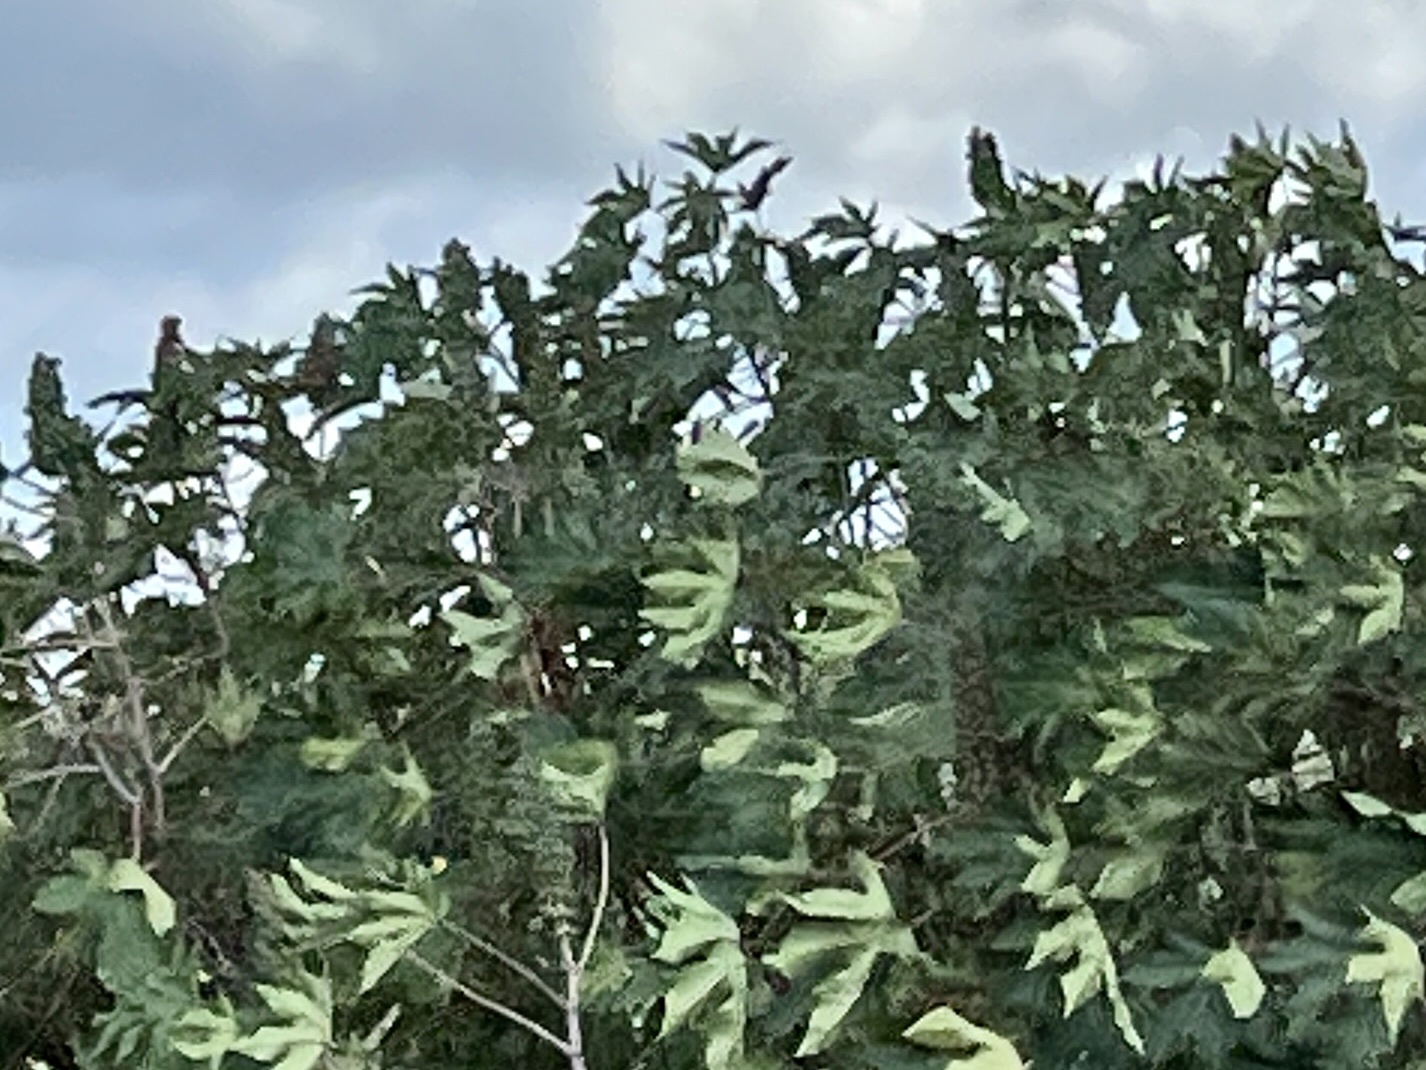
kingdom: Plantae
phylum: Tracheophyta
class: Magnoliopsida
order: Malpighiales
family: Euphorbiaceae
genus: Ricinus
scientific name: Ricinus communis
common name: Castor-oil-plant
